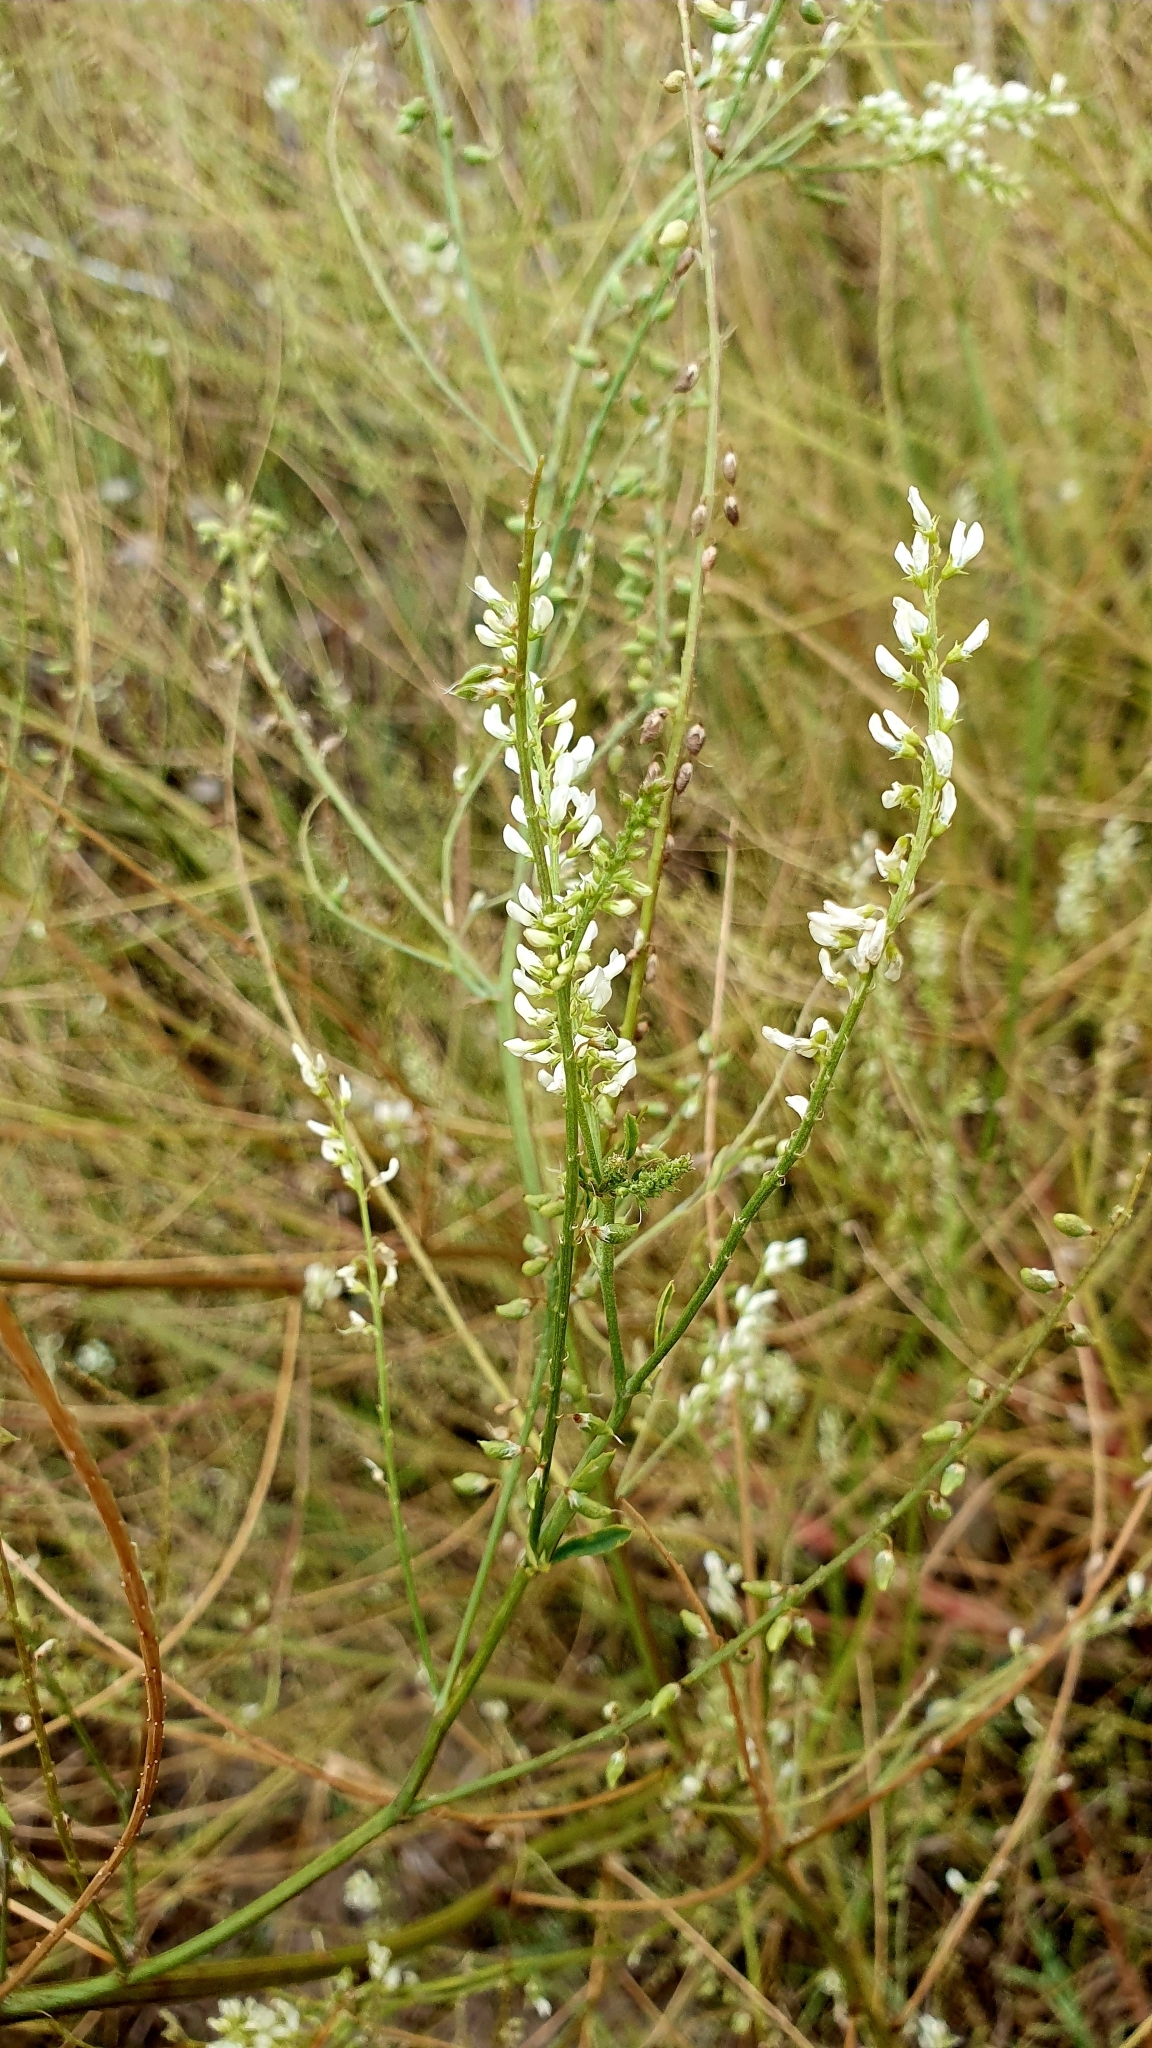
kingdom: Plantae
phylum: Tracheophyta
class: Magnoliopsida
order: Fabales
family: Fabaceae
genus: Melilotus
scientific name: Melilotus albus
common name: White melilot
